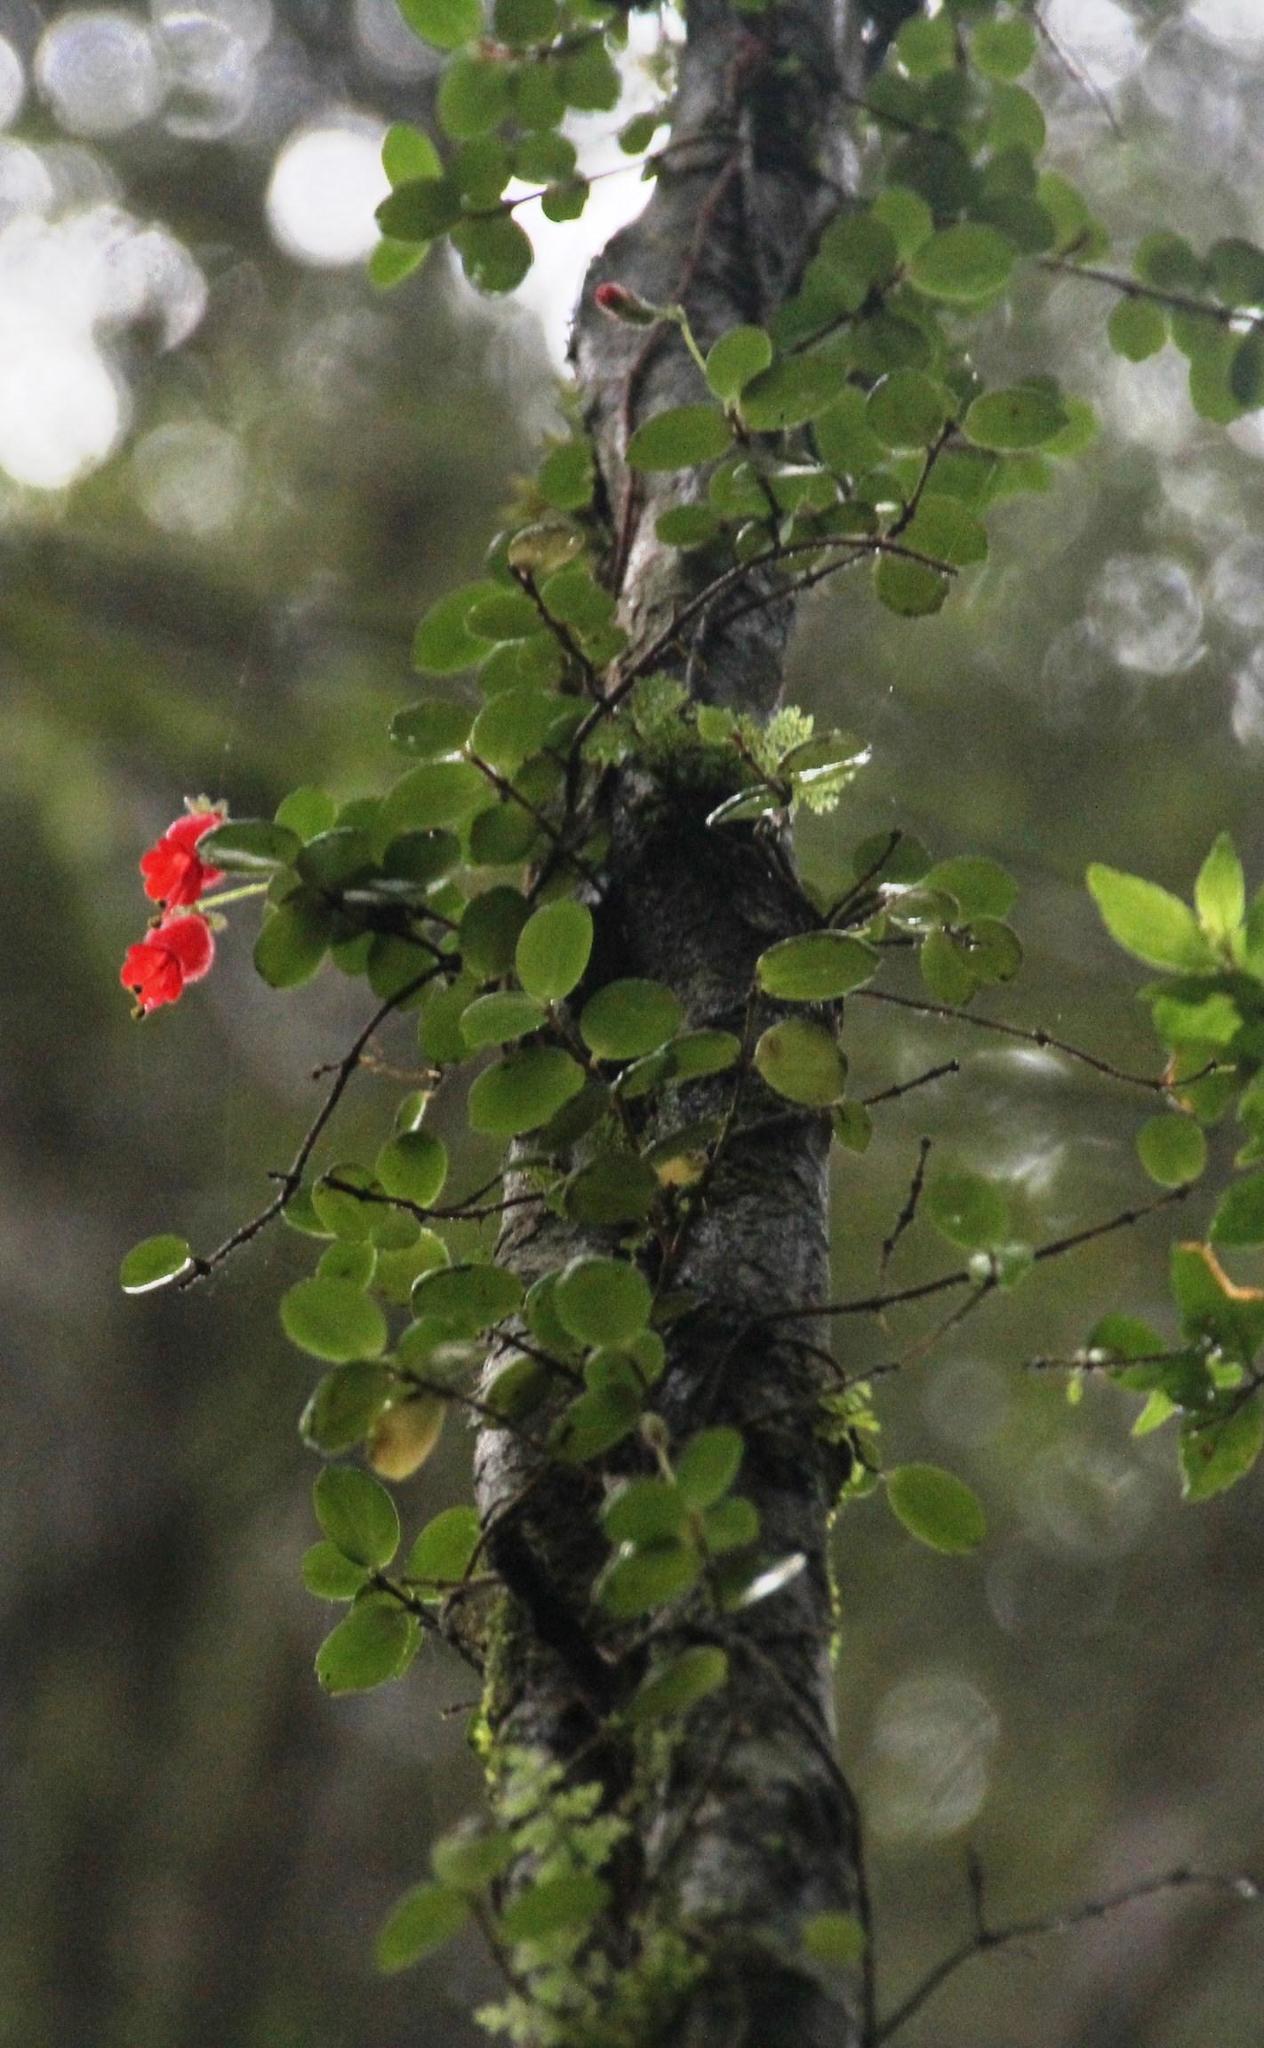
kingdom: Plantae
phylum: Tracheophyta
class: Magnoliopsida
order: Lamiales
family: Gesneriaceae
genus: Sarmienta
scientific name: Sarmienta scandens
